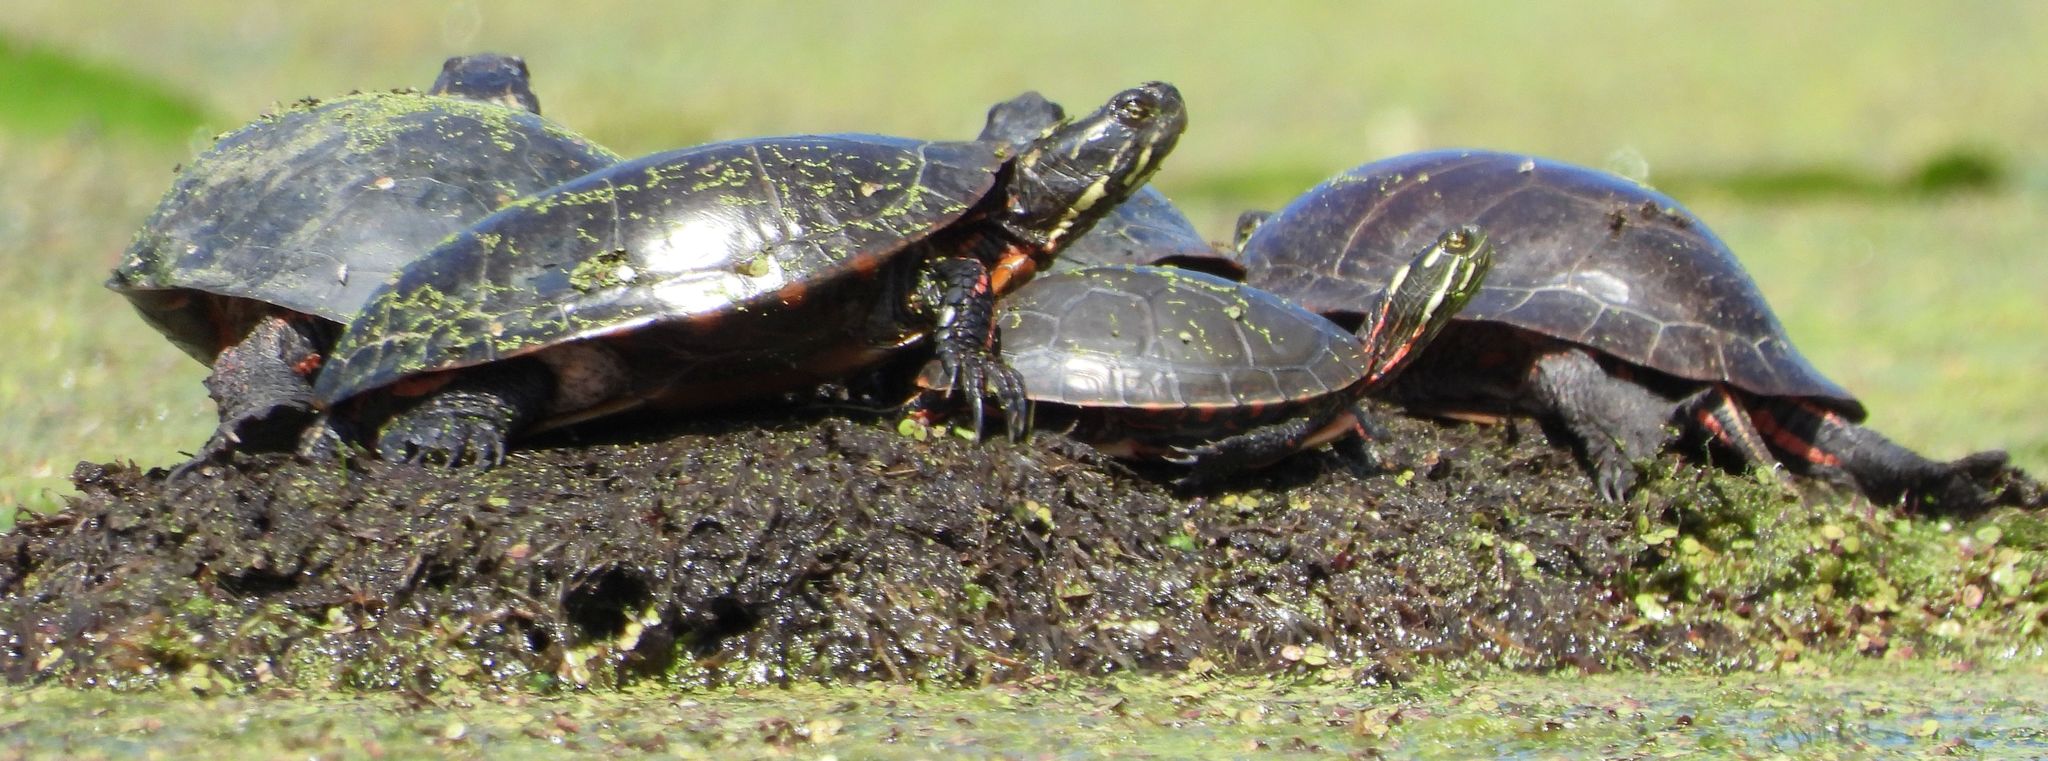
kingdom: Animalia
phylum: Chordata
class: Testudines
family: Emydidae
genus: Chrysemys
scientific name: Chrysemys picta
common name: Painted turtle
